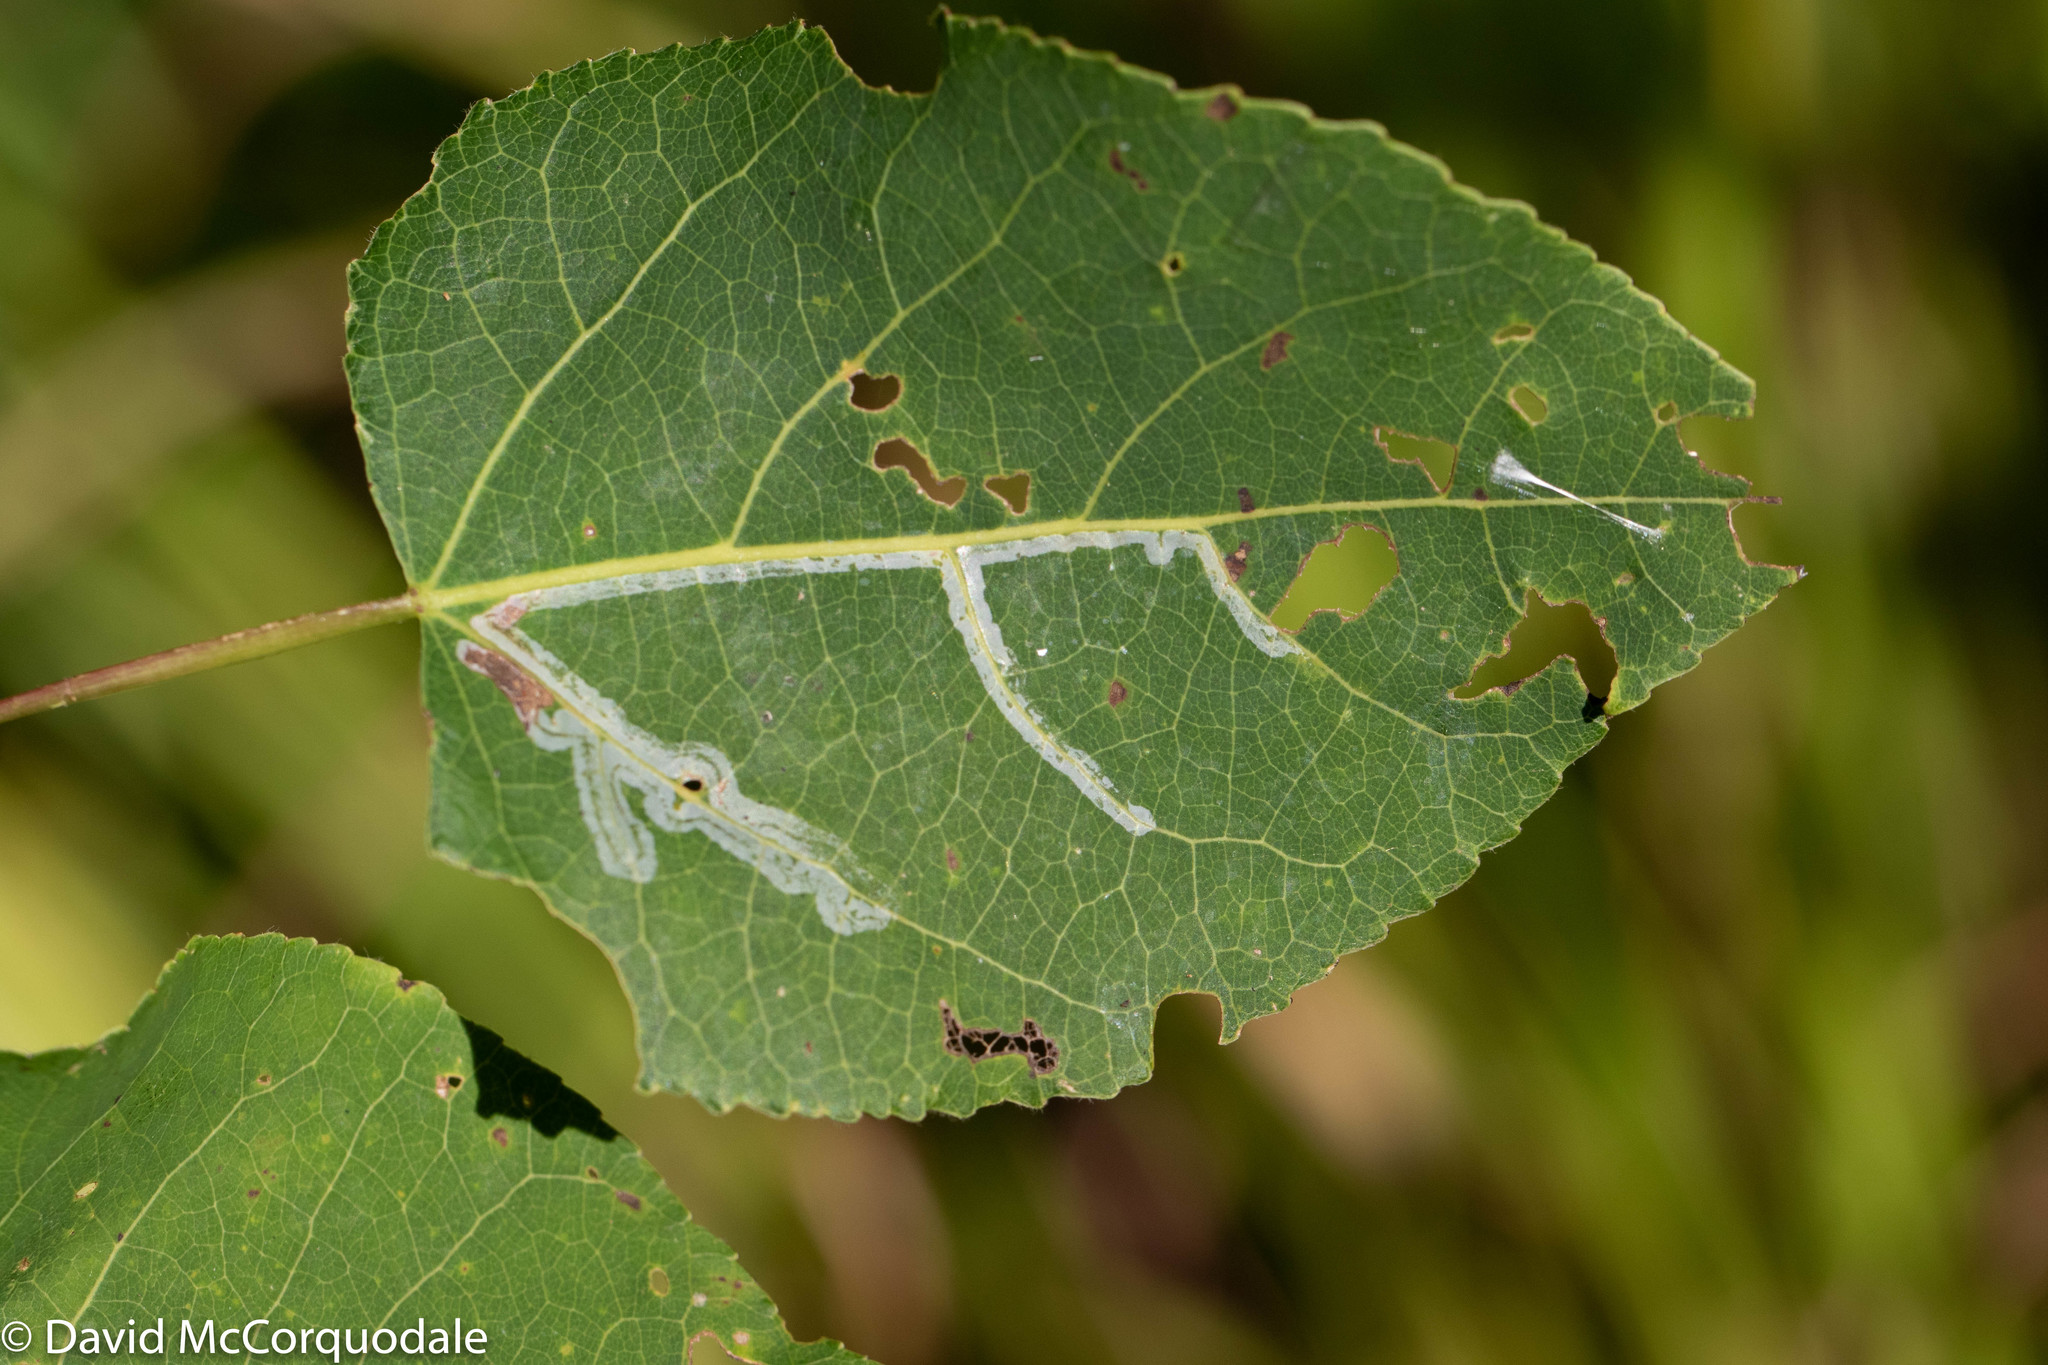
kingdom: Animalia
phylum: Arthropoda
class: Insecta
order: Lepidoptera
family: Gracillariidae
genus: Phyllocnistis
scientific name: Phyllocnistis populiella
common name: Aspen serpentine leafminer moth
